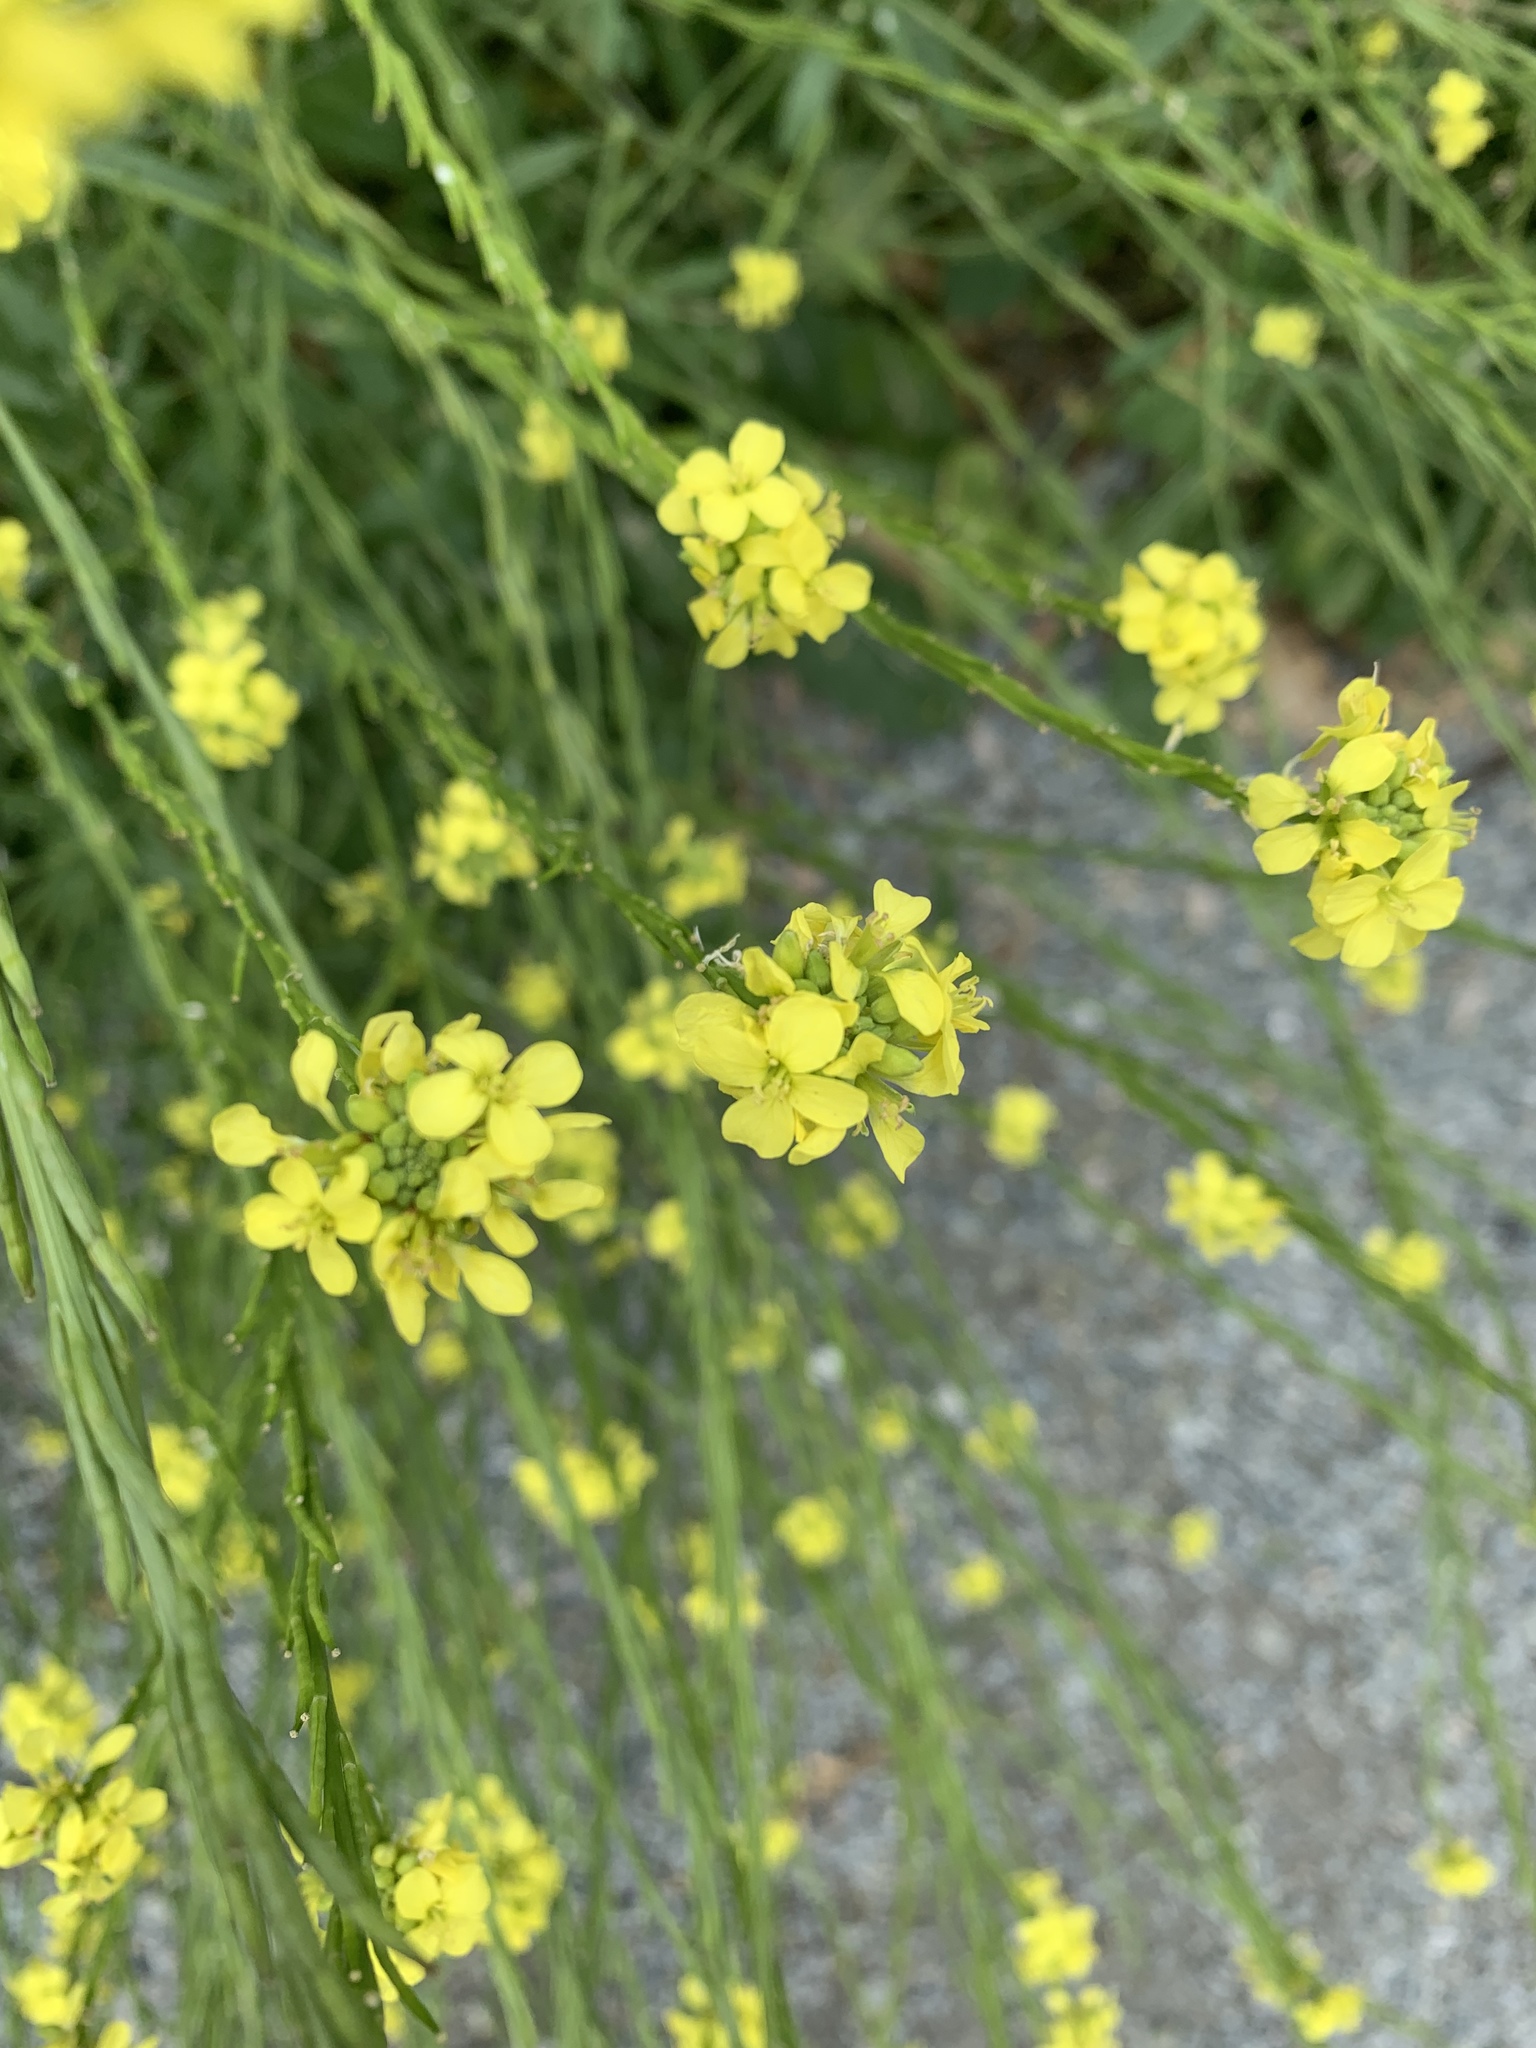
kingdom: Plantae
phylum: Tracheophyta
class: Magnoliopsida
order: Brassicales
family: Brassicaceae
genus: Hirschfeldia
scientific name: Hirschfeldia incana
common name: Hoary mustard
